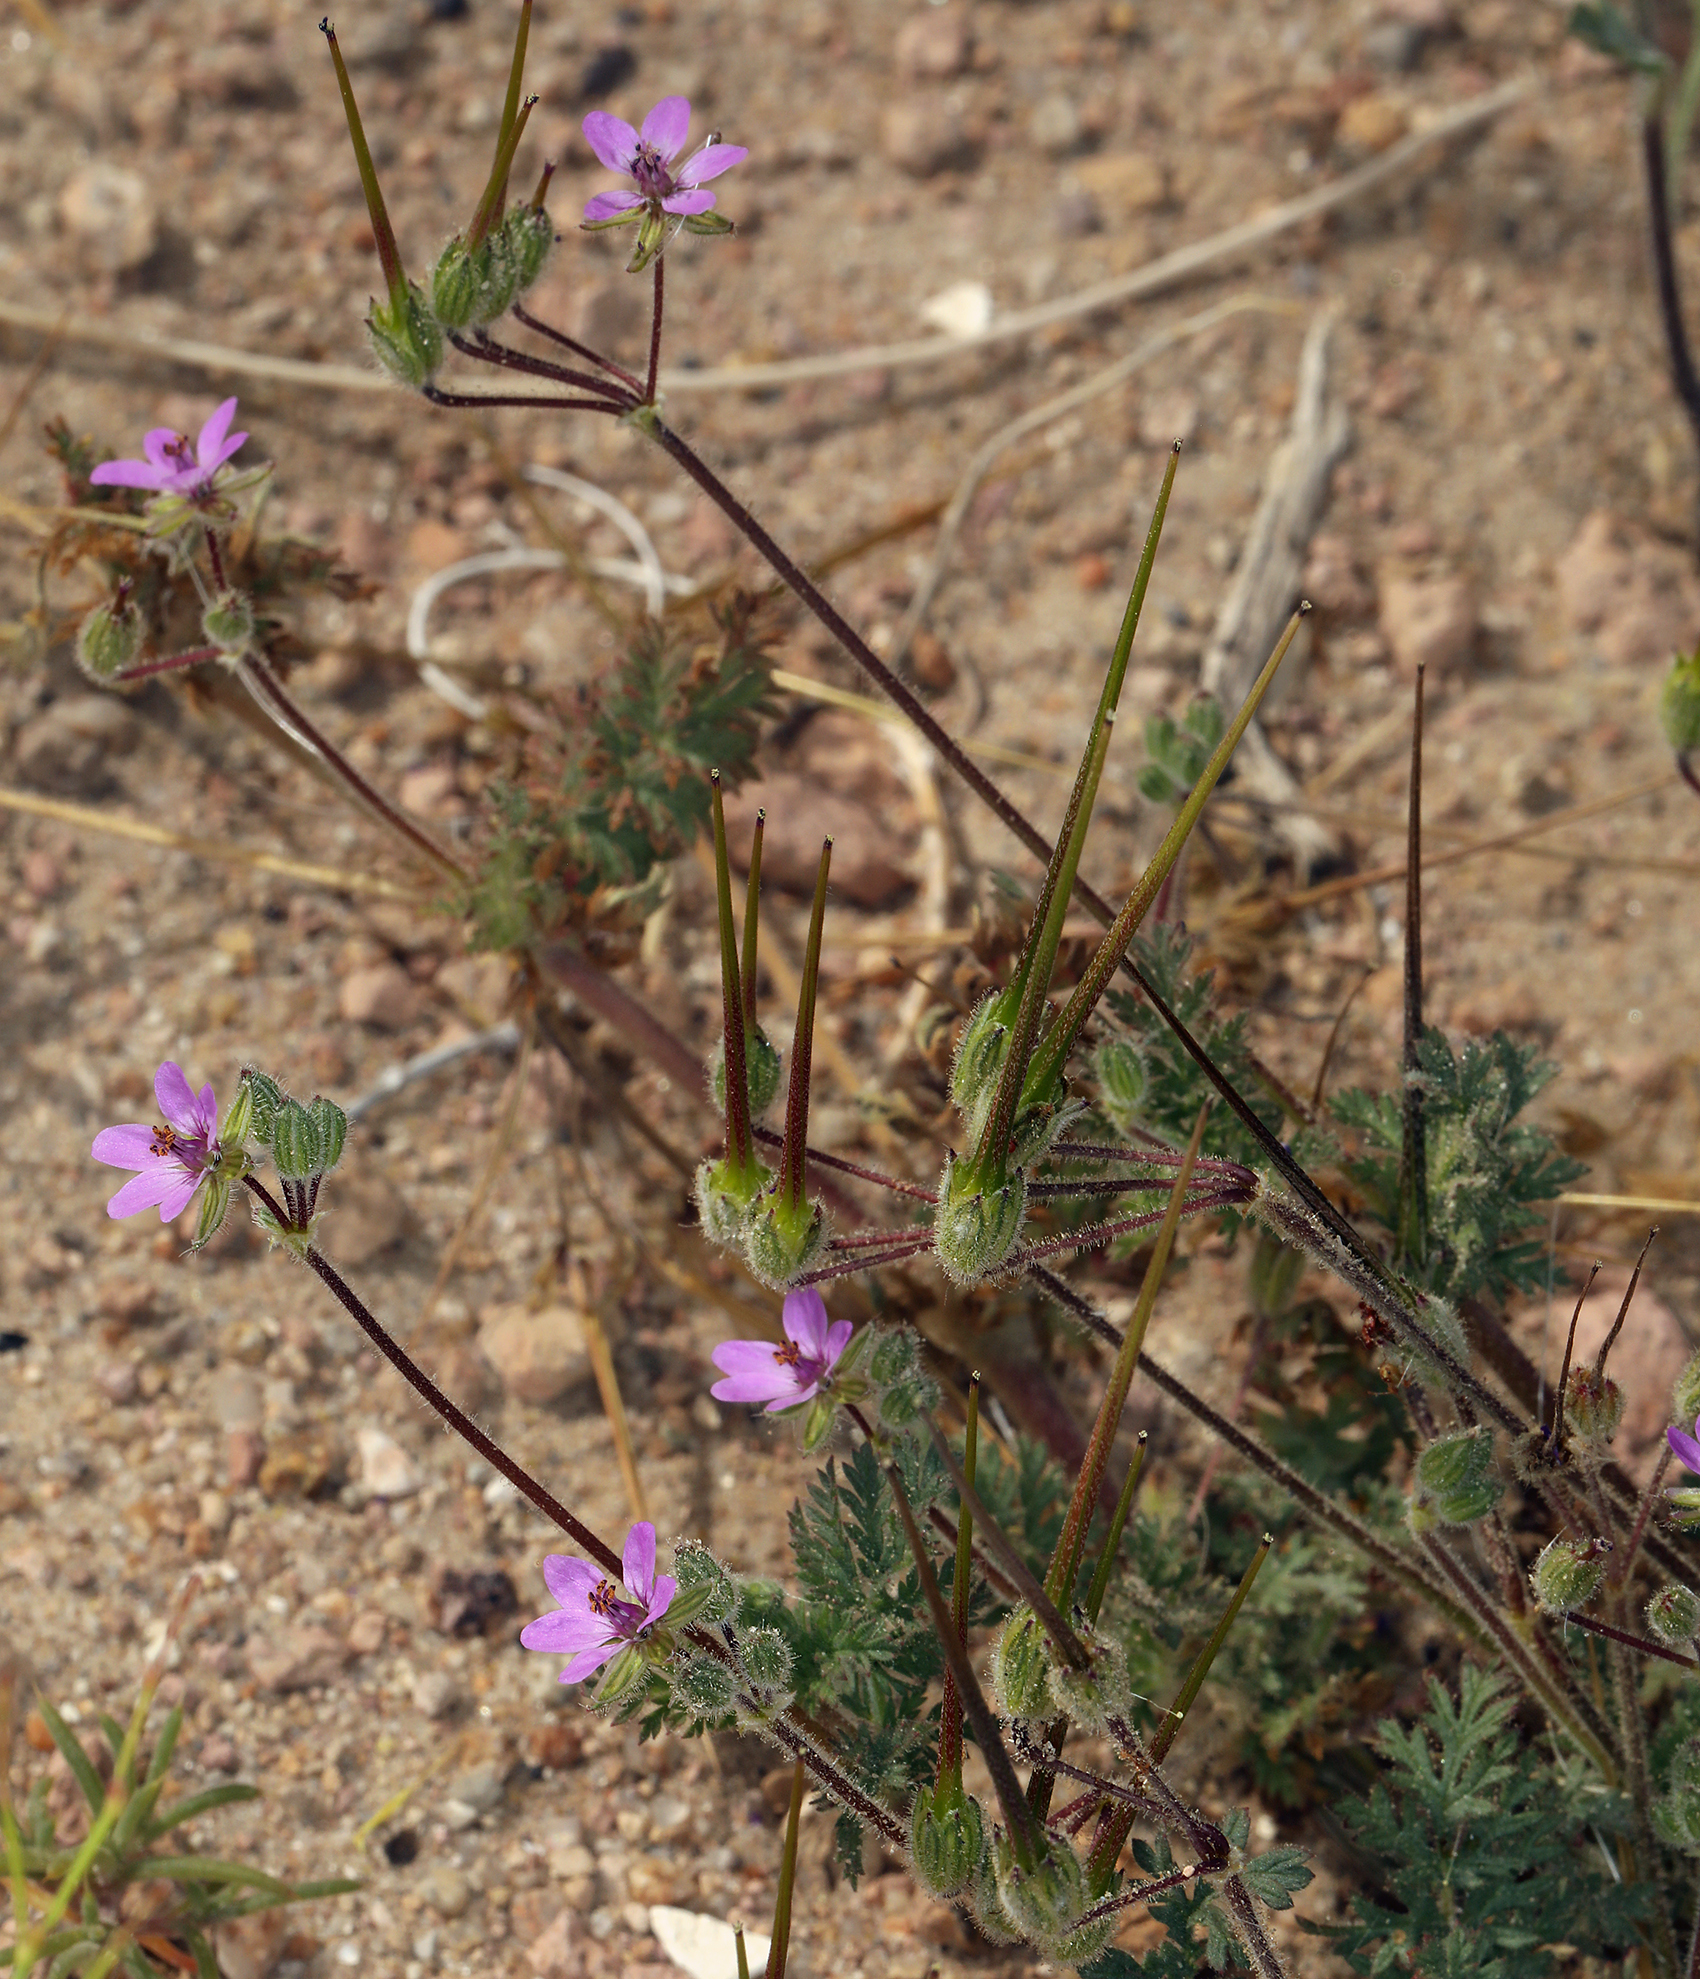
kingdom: Plantae
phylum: Tracheophyta
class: Magnoliopsida
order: Geraniales
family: Geraniaceae
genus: Erodium
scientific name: Erodium cicutarium
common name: Common stork's-bill
